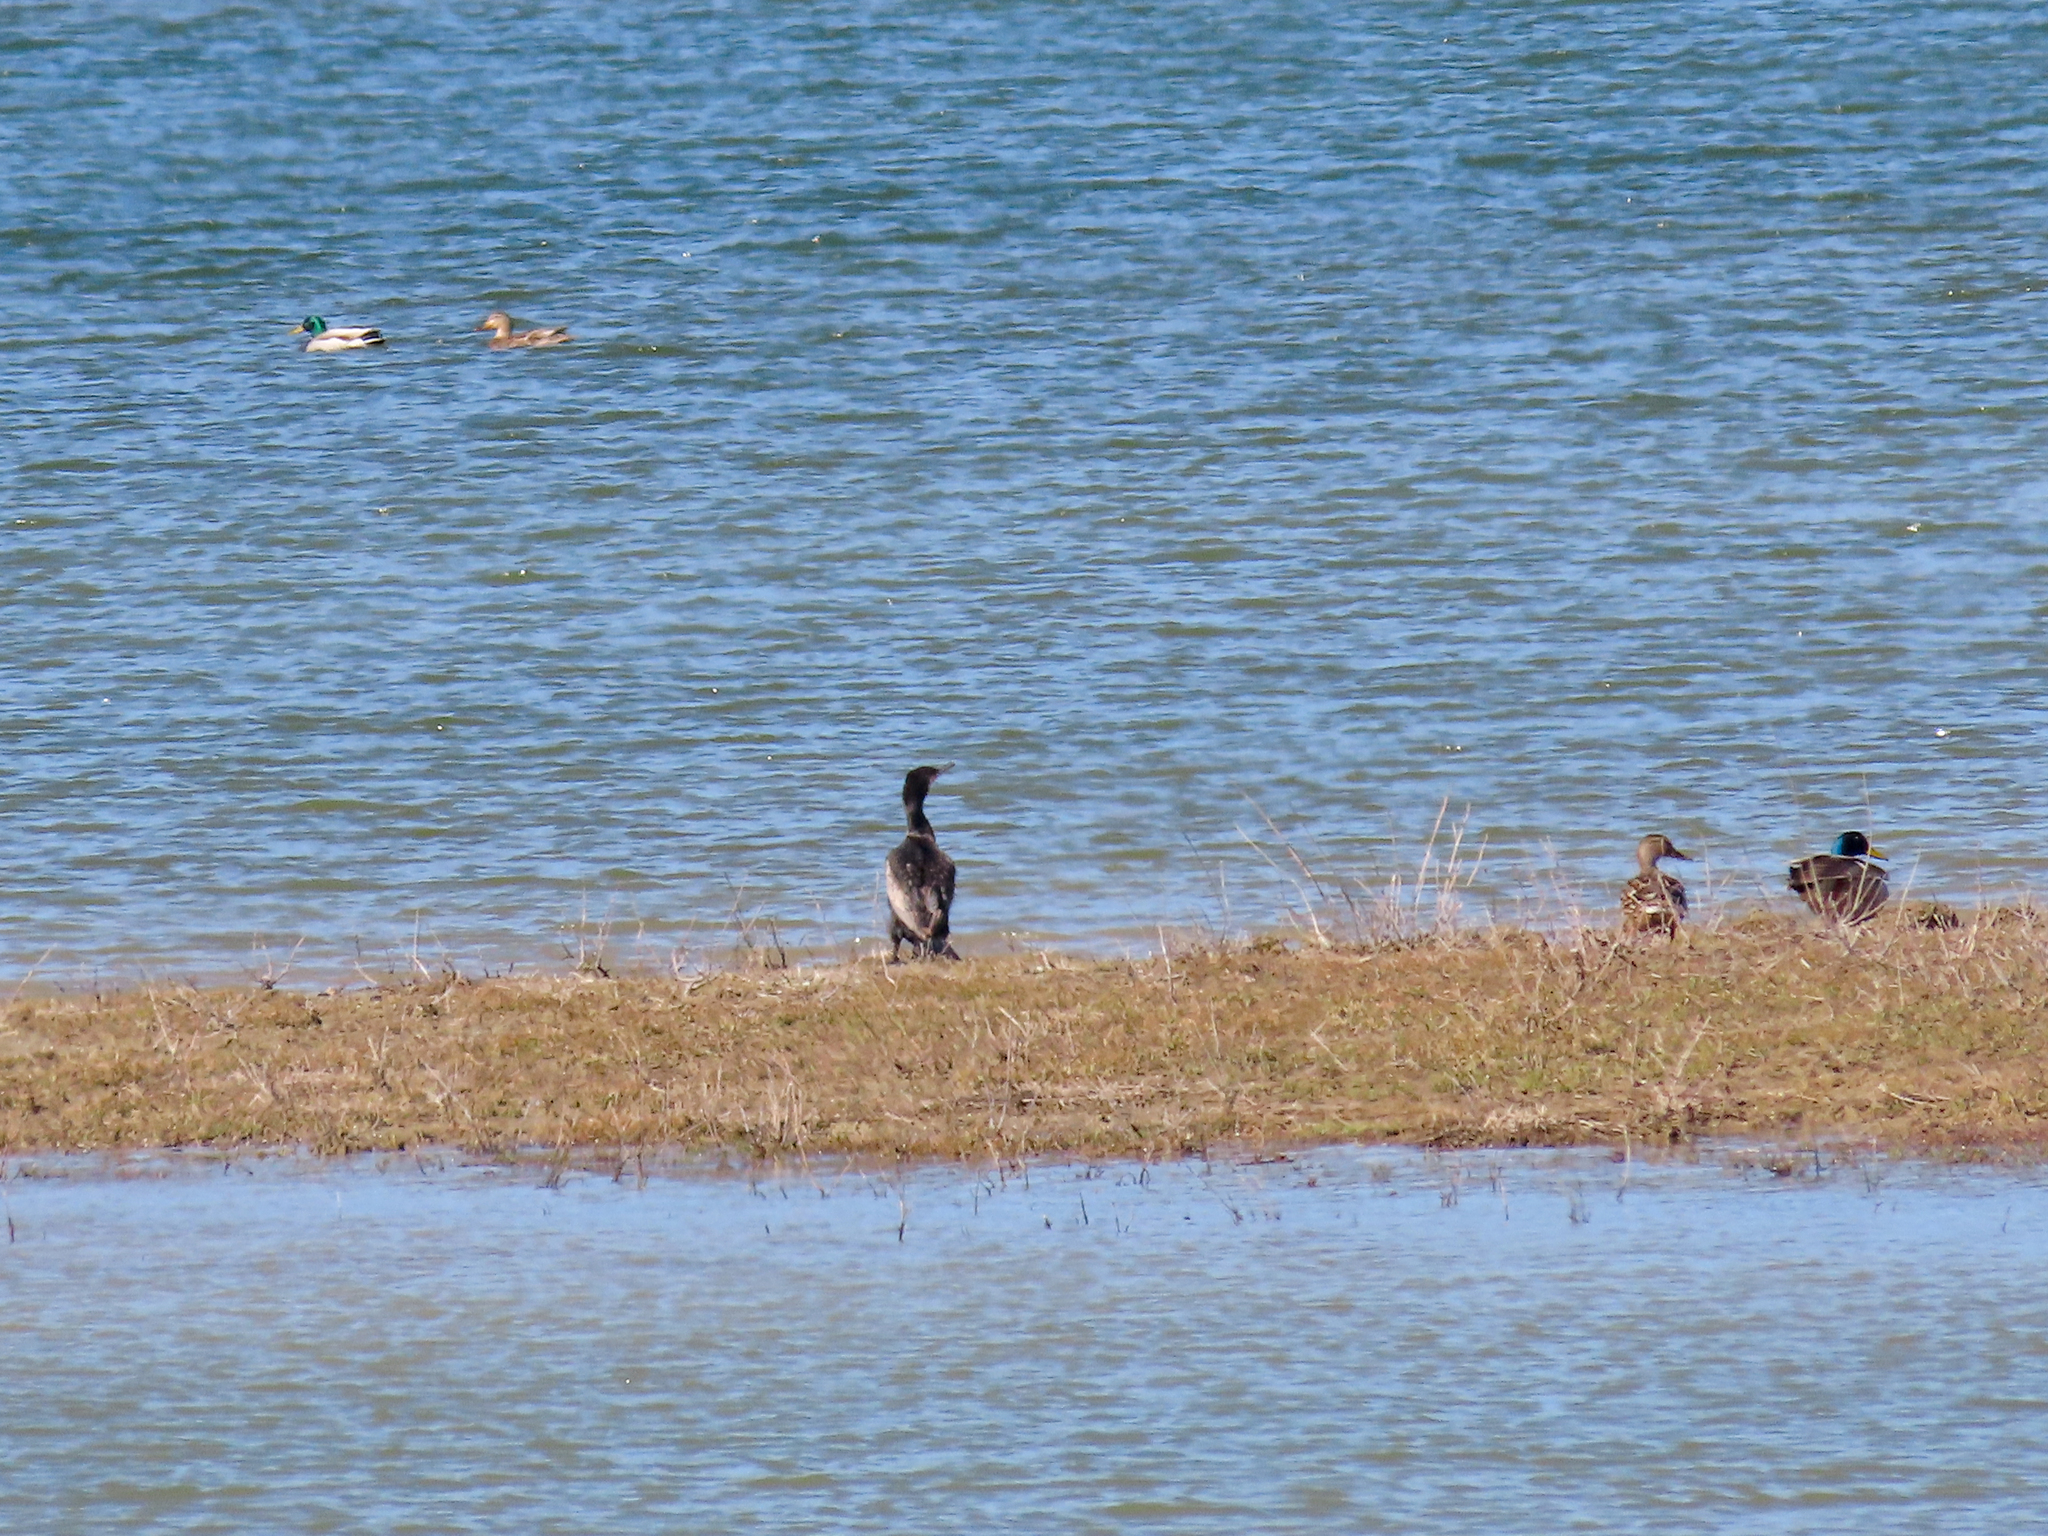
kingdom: Animalia
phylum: Chordata
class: Aves
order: Suliformes
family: Phalacrocoracidae
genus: Phalacrocorax
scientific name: Phalacrocorax carbo
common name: Great cormorant
